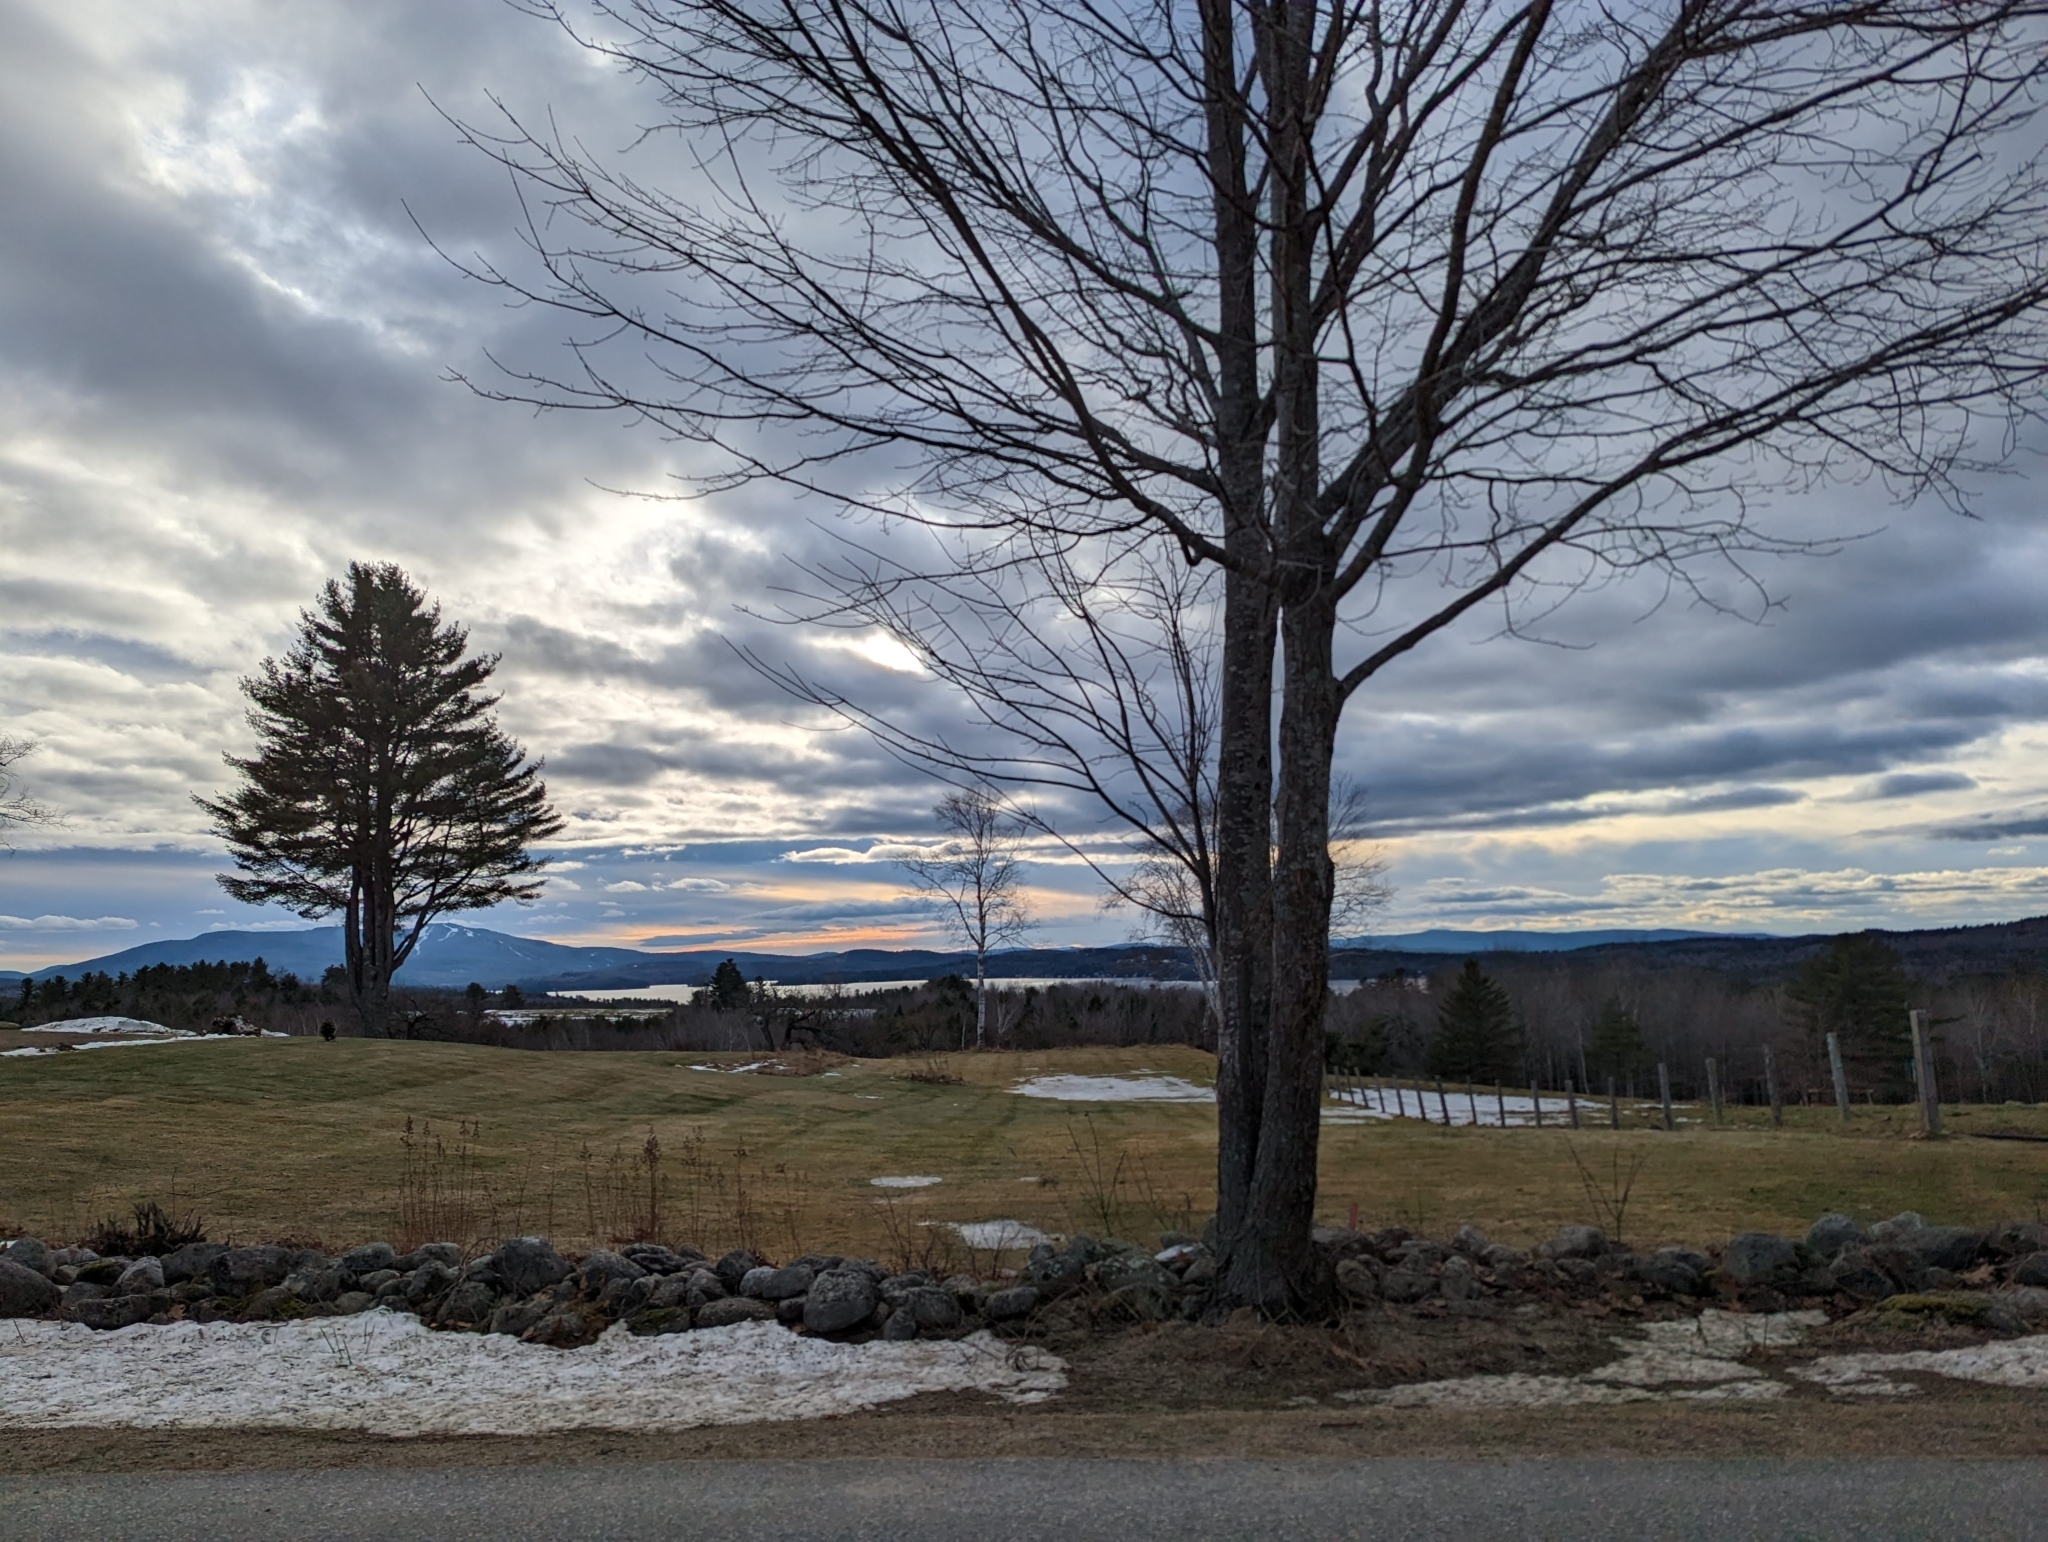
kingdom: Plantae
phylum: Tracheophyta
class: Pinopsida
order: Pinales
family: Pinaceae
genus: Pinus
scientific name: Pinus strobus
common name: Weymouth pine
